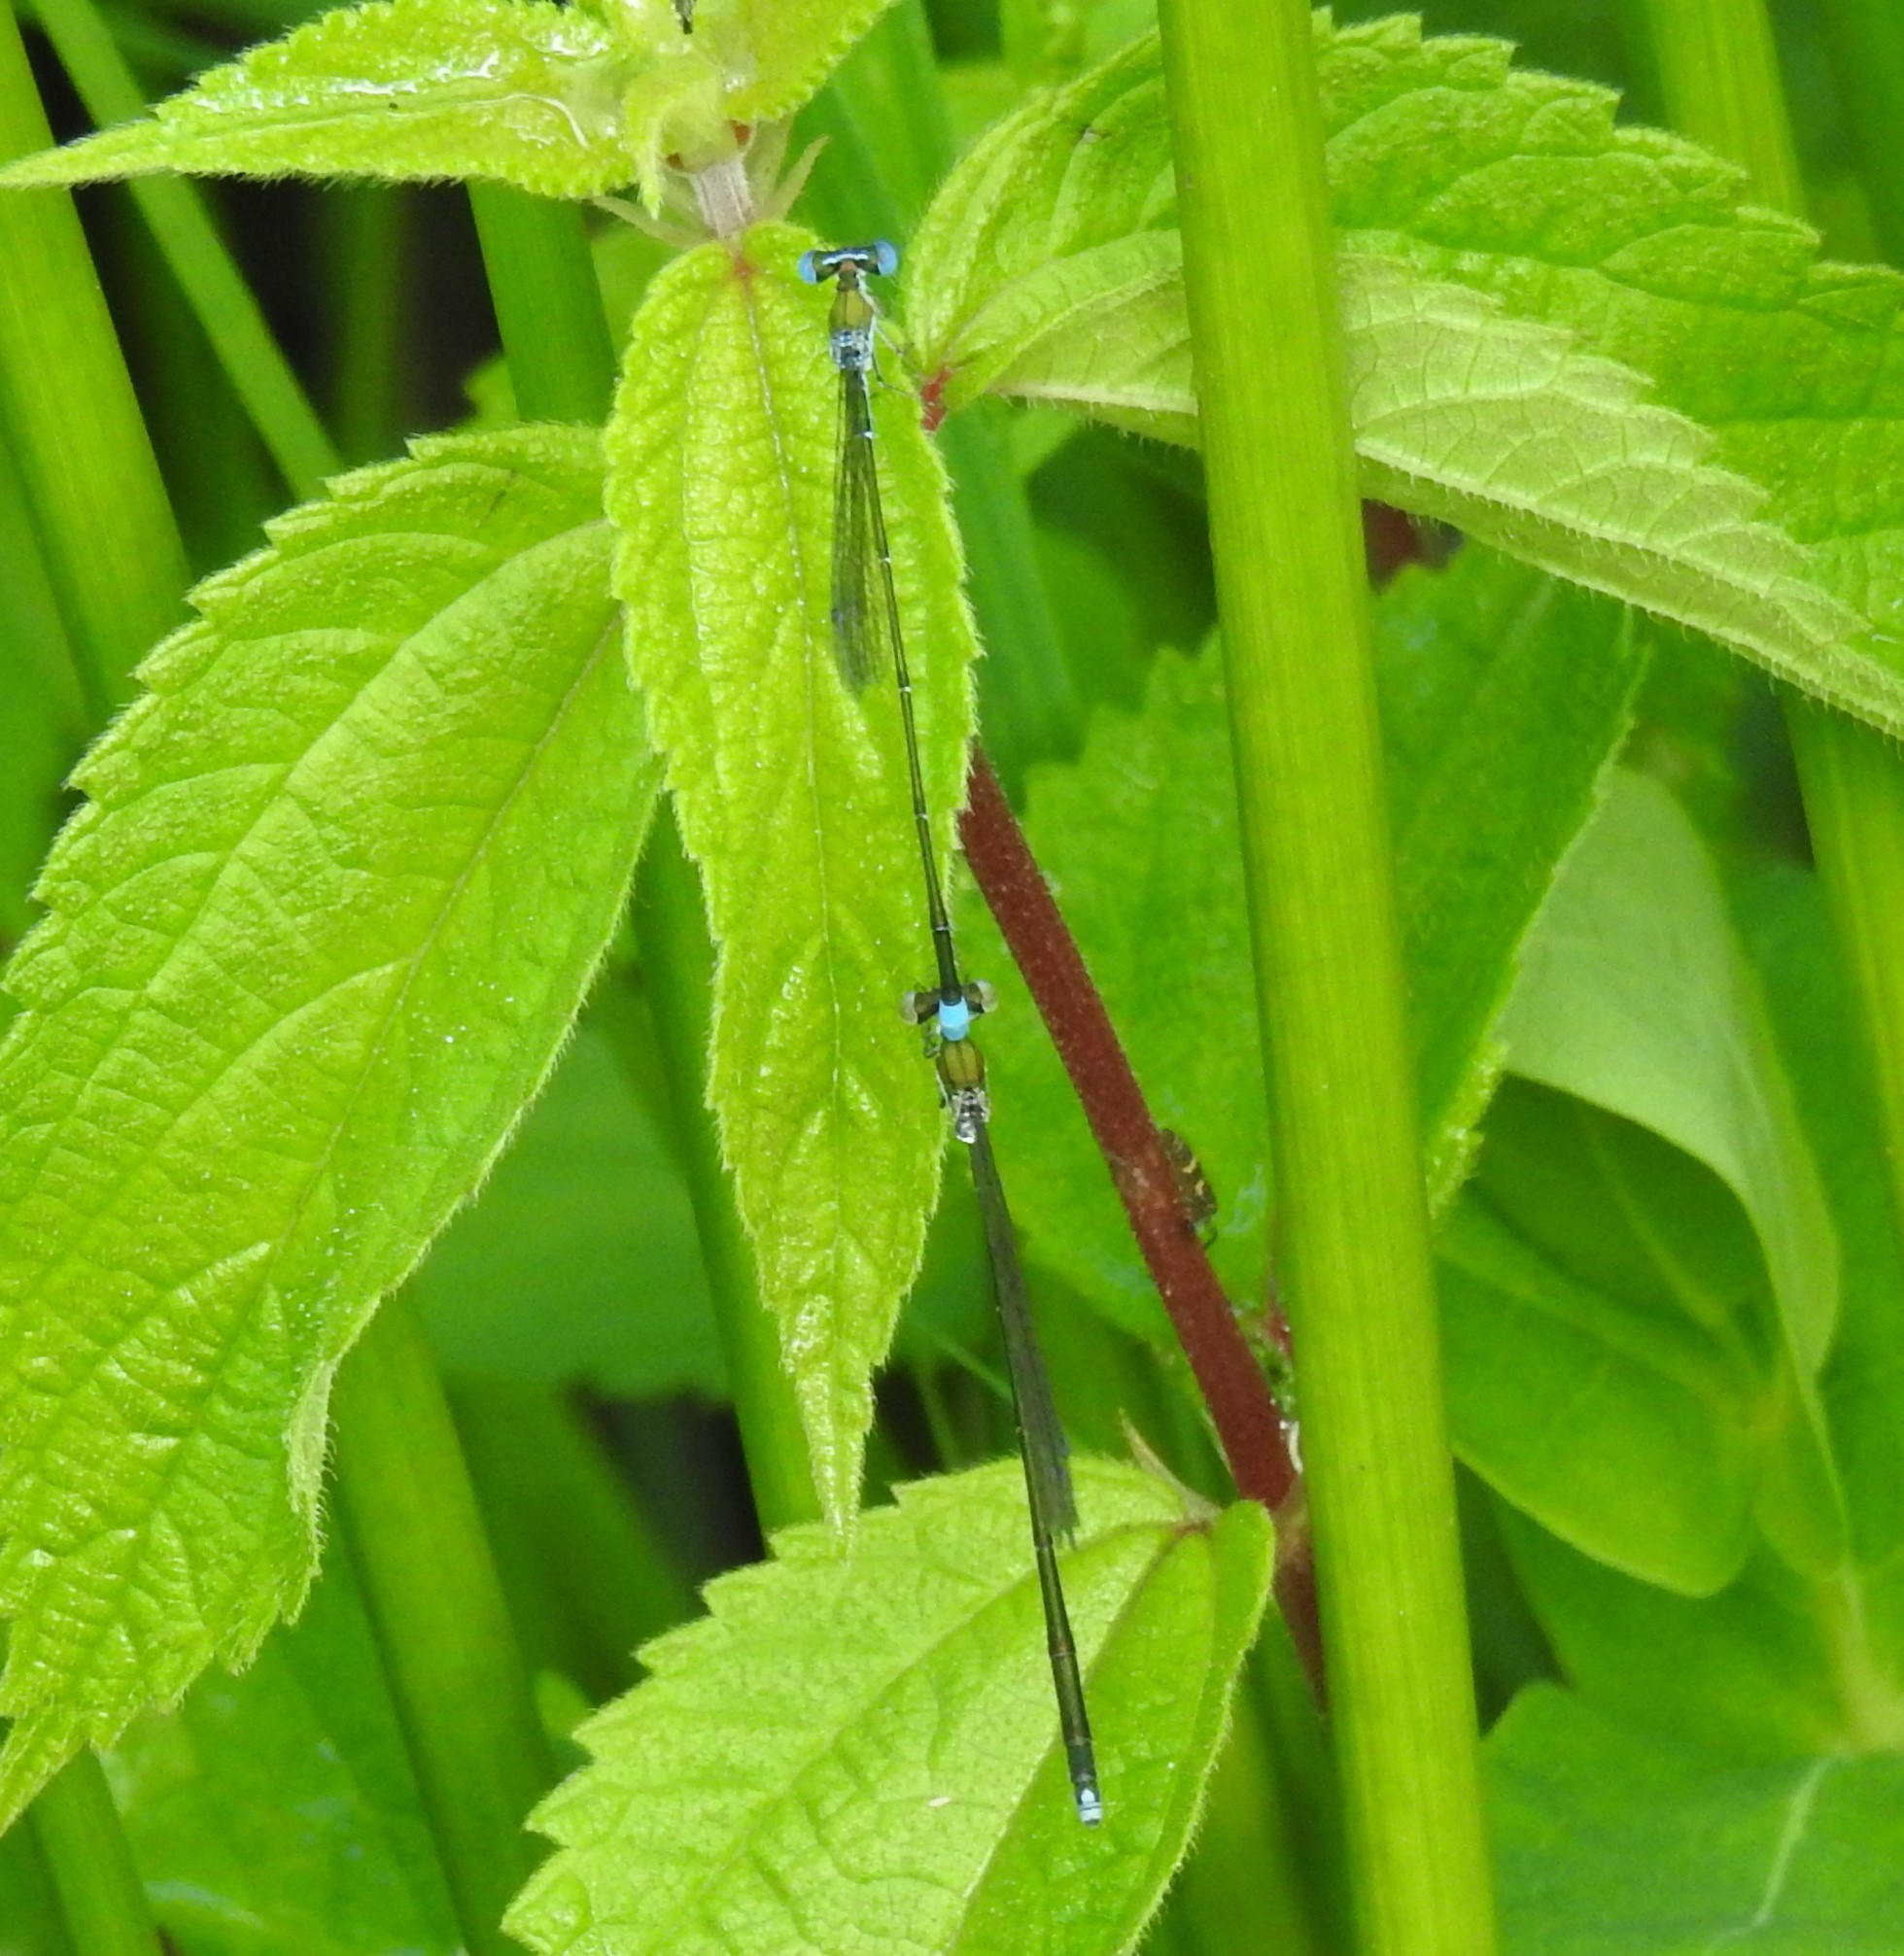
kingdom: Animalia
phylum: Arthropoda
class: Insecta
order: Odonata
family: Coenagrionidae
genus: Nehalennia
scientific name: Nehalennia gracilis
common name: Sphagnum sprite
